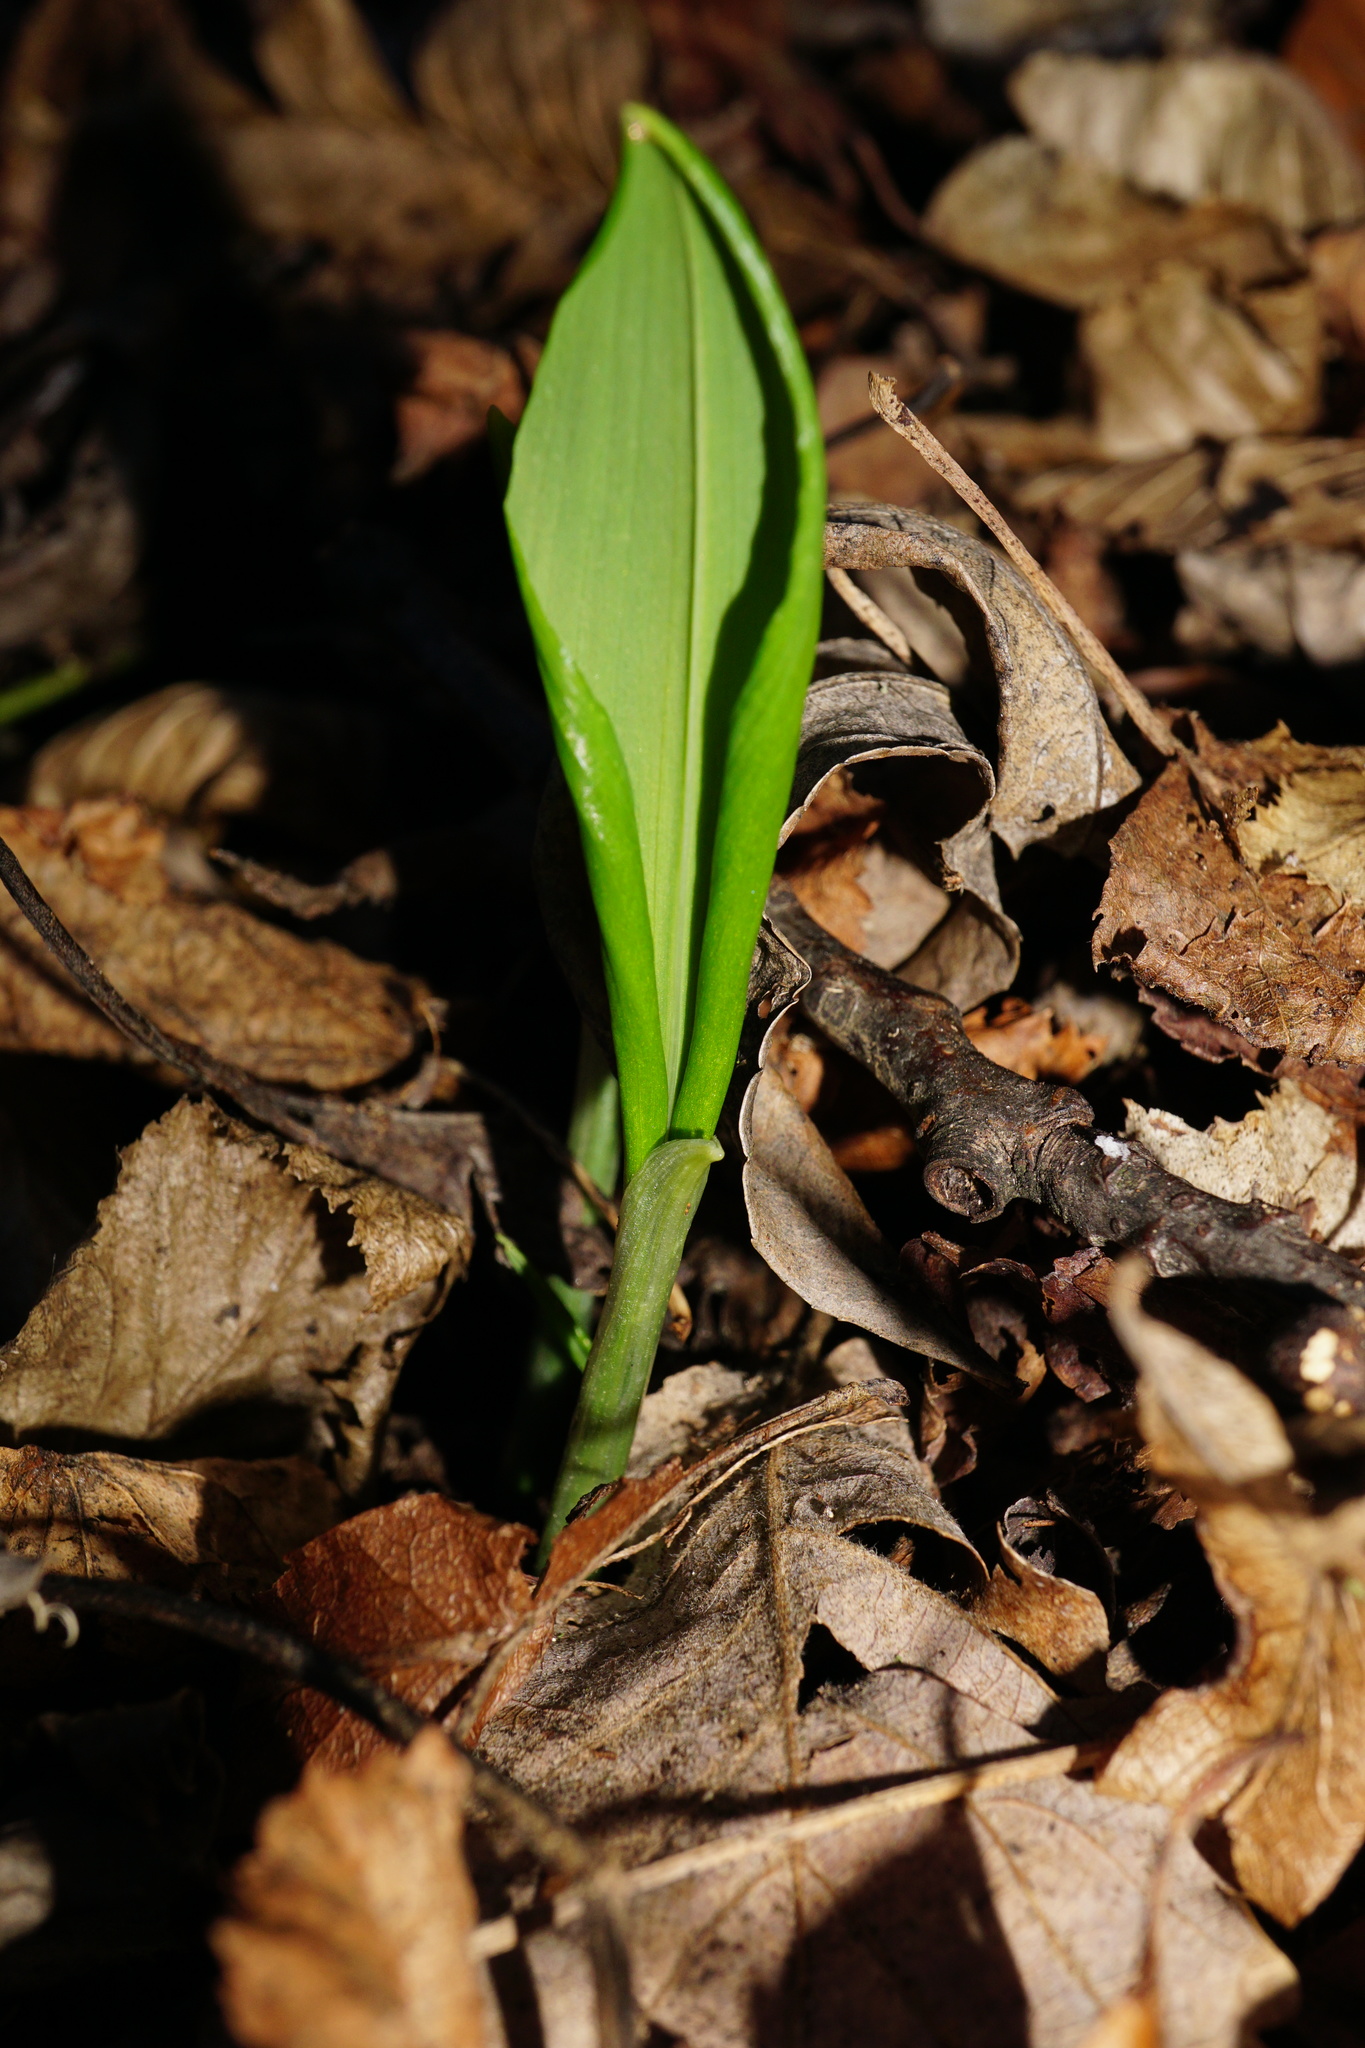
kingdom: Plantae
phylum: Tracheophyta
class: Liliopsida
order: Asparagales
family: Amaryllidaceae
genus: Allium
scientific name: Allium ursinum
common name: Ramsons
